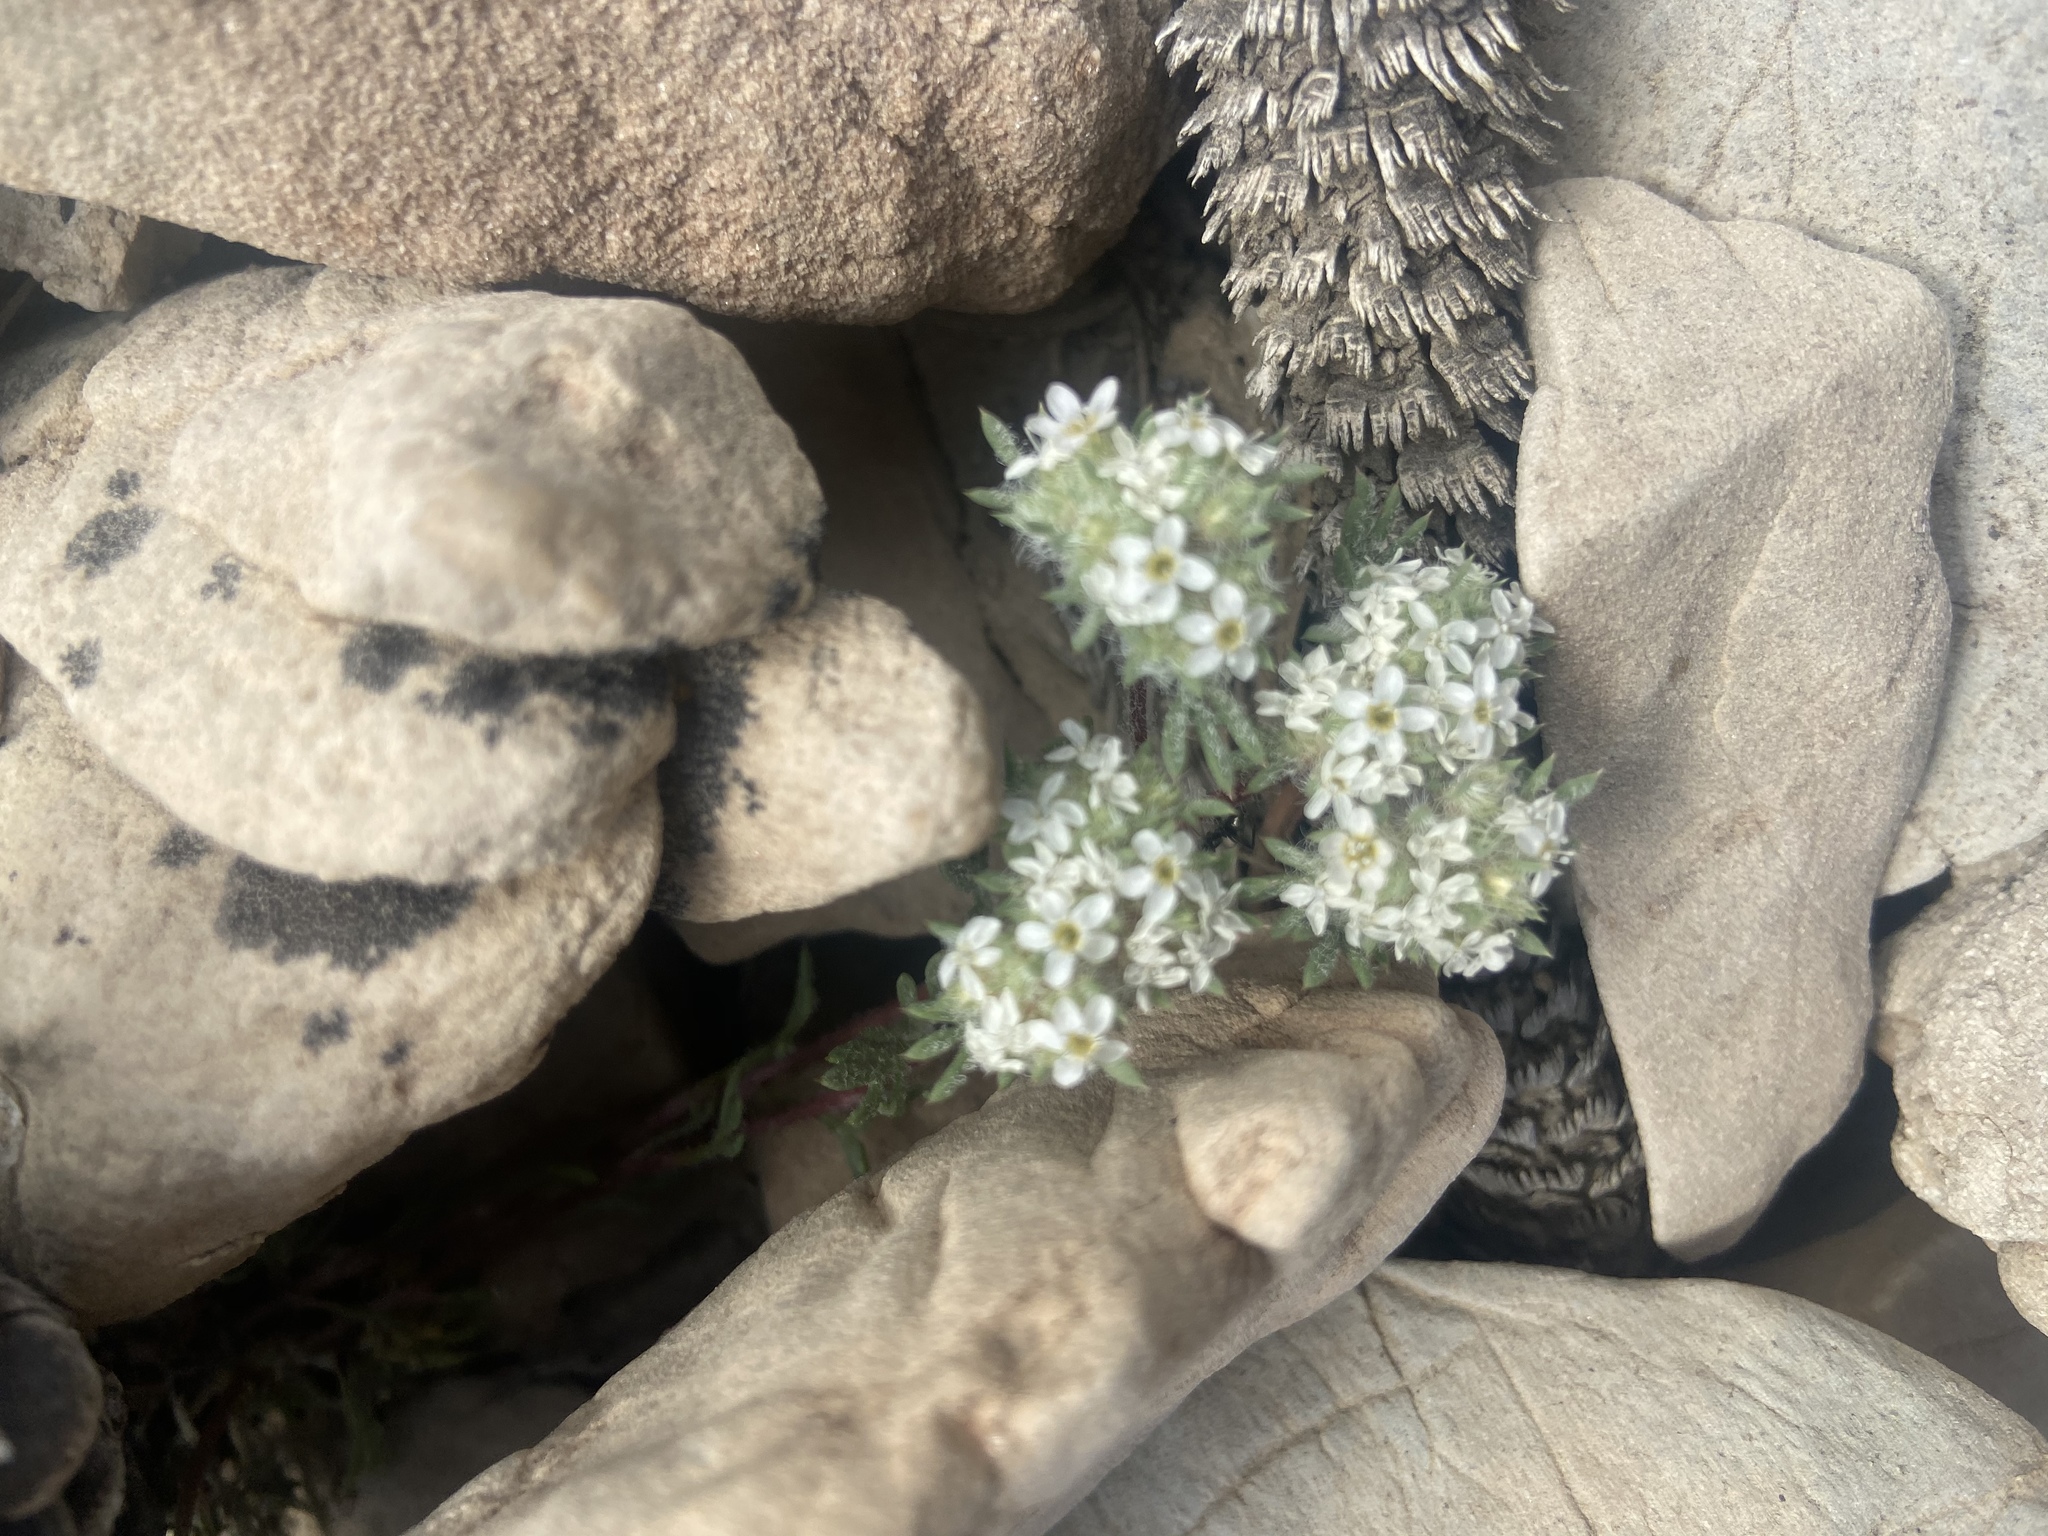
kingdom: Plantae
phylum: Tracheophyta
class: Magnoliopsida
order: Ericales
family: Polemoniaceae
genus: Ipomopsis
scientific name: Ipomopsis congesta
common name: Ball-head gilia
